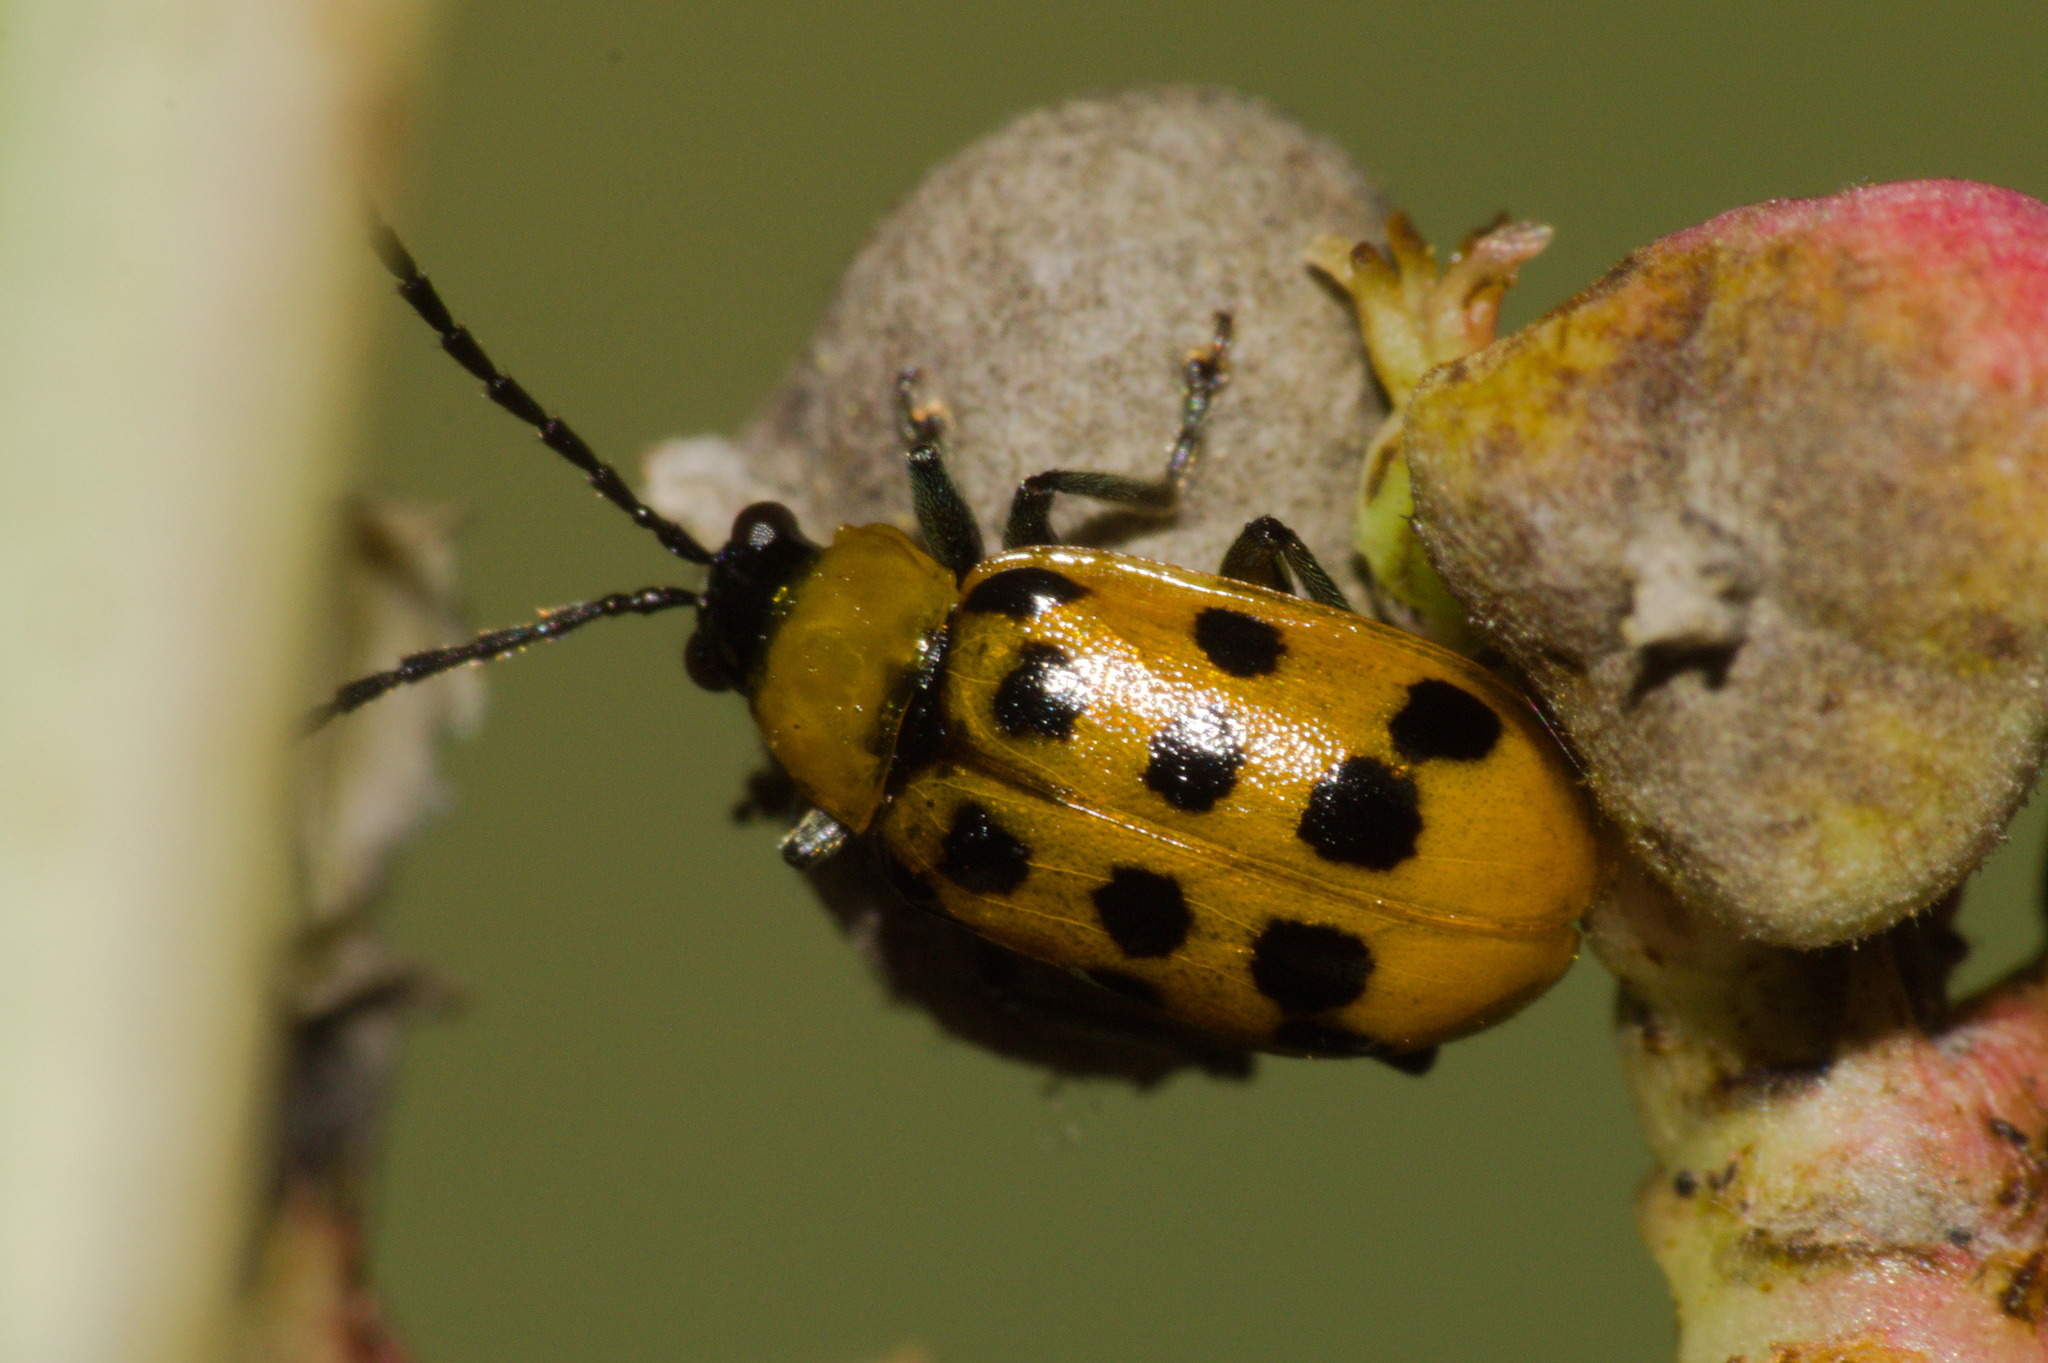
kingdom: Animalia
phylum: Arthropoda
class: Insecta
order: Coleoptera
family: Chrysomelidae
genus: Paranapiacaba
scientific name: Paranapiacaba
